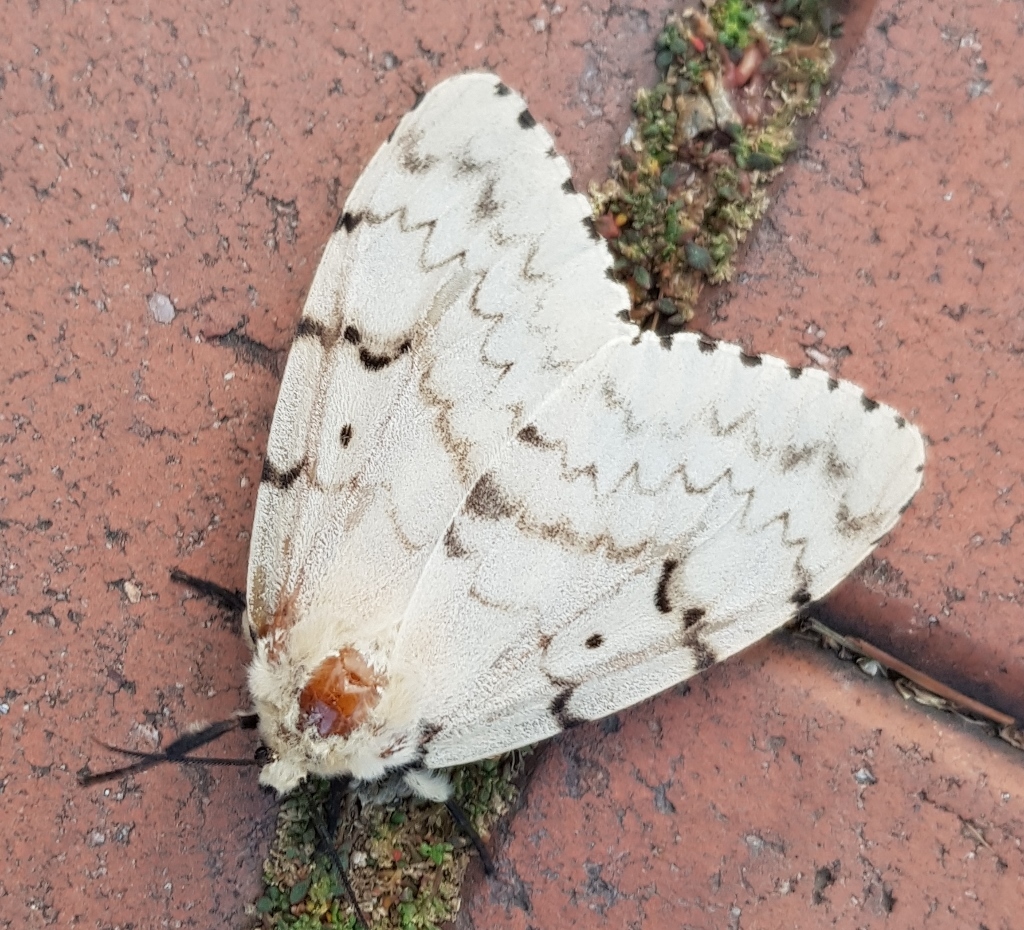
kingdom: Animalia
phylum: Arthropoda
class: Insecta
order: Lepidoptera
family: Erebidae
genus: Lymantria
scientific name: Lymantria dispar
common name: Gypsy moth
